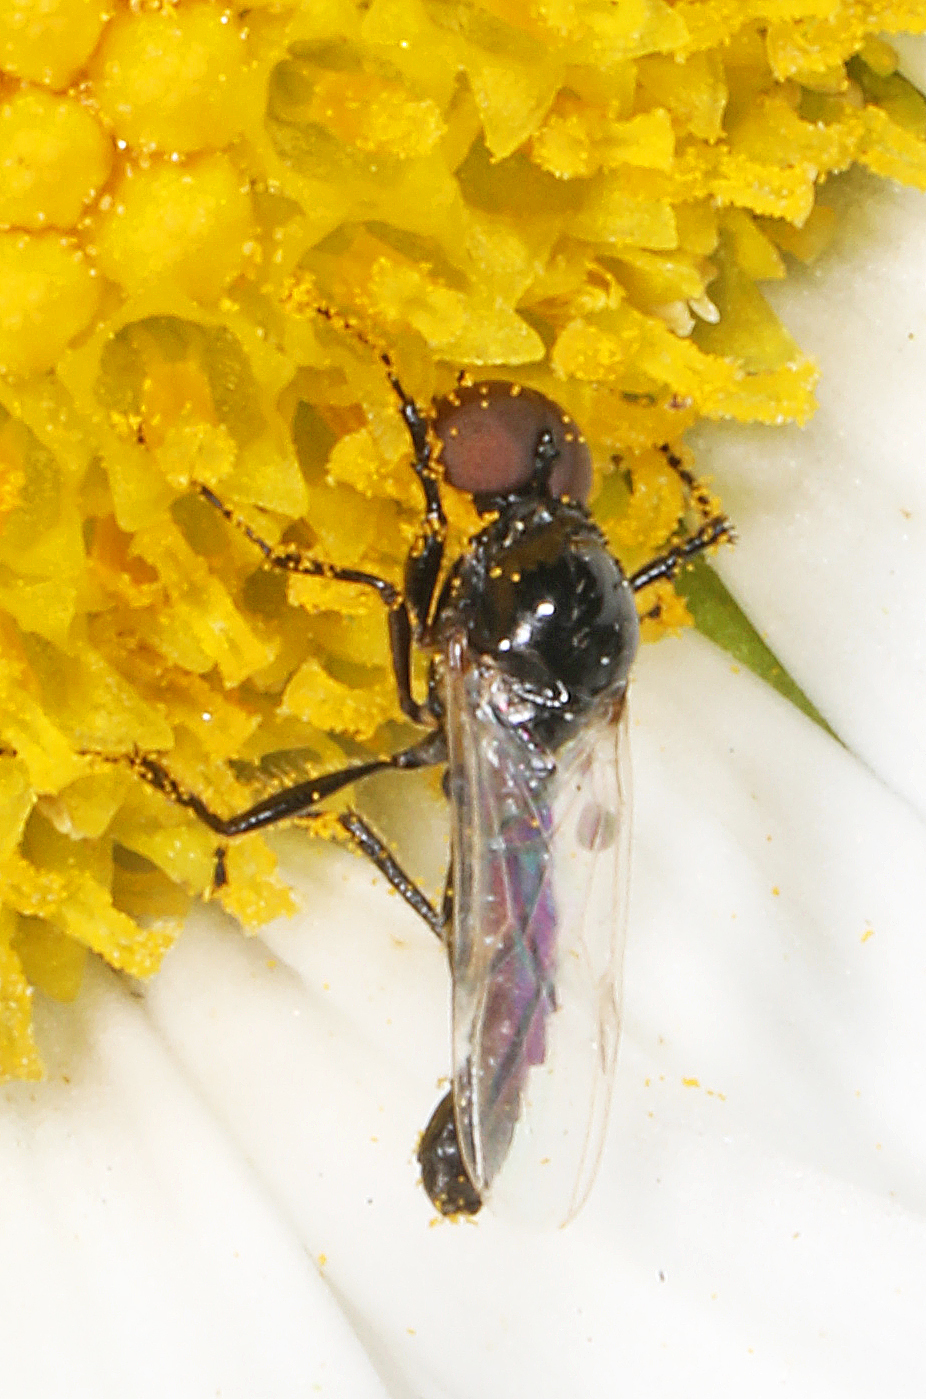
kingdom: Animalia
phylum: Arthropoda
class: Insecta
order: Diptera
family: Bibionidae
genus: Dilophus
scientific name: Dilophus
